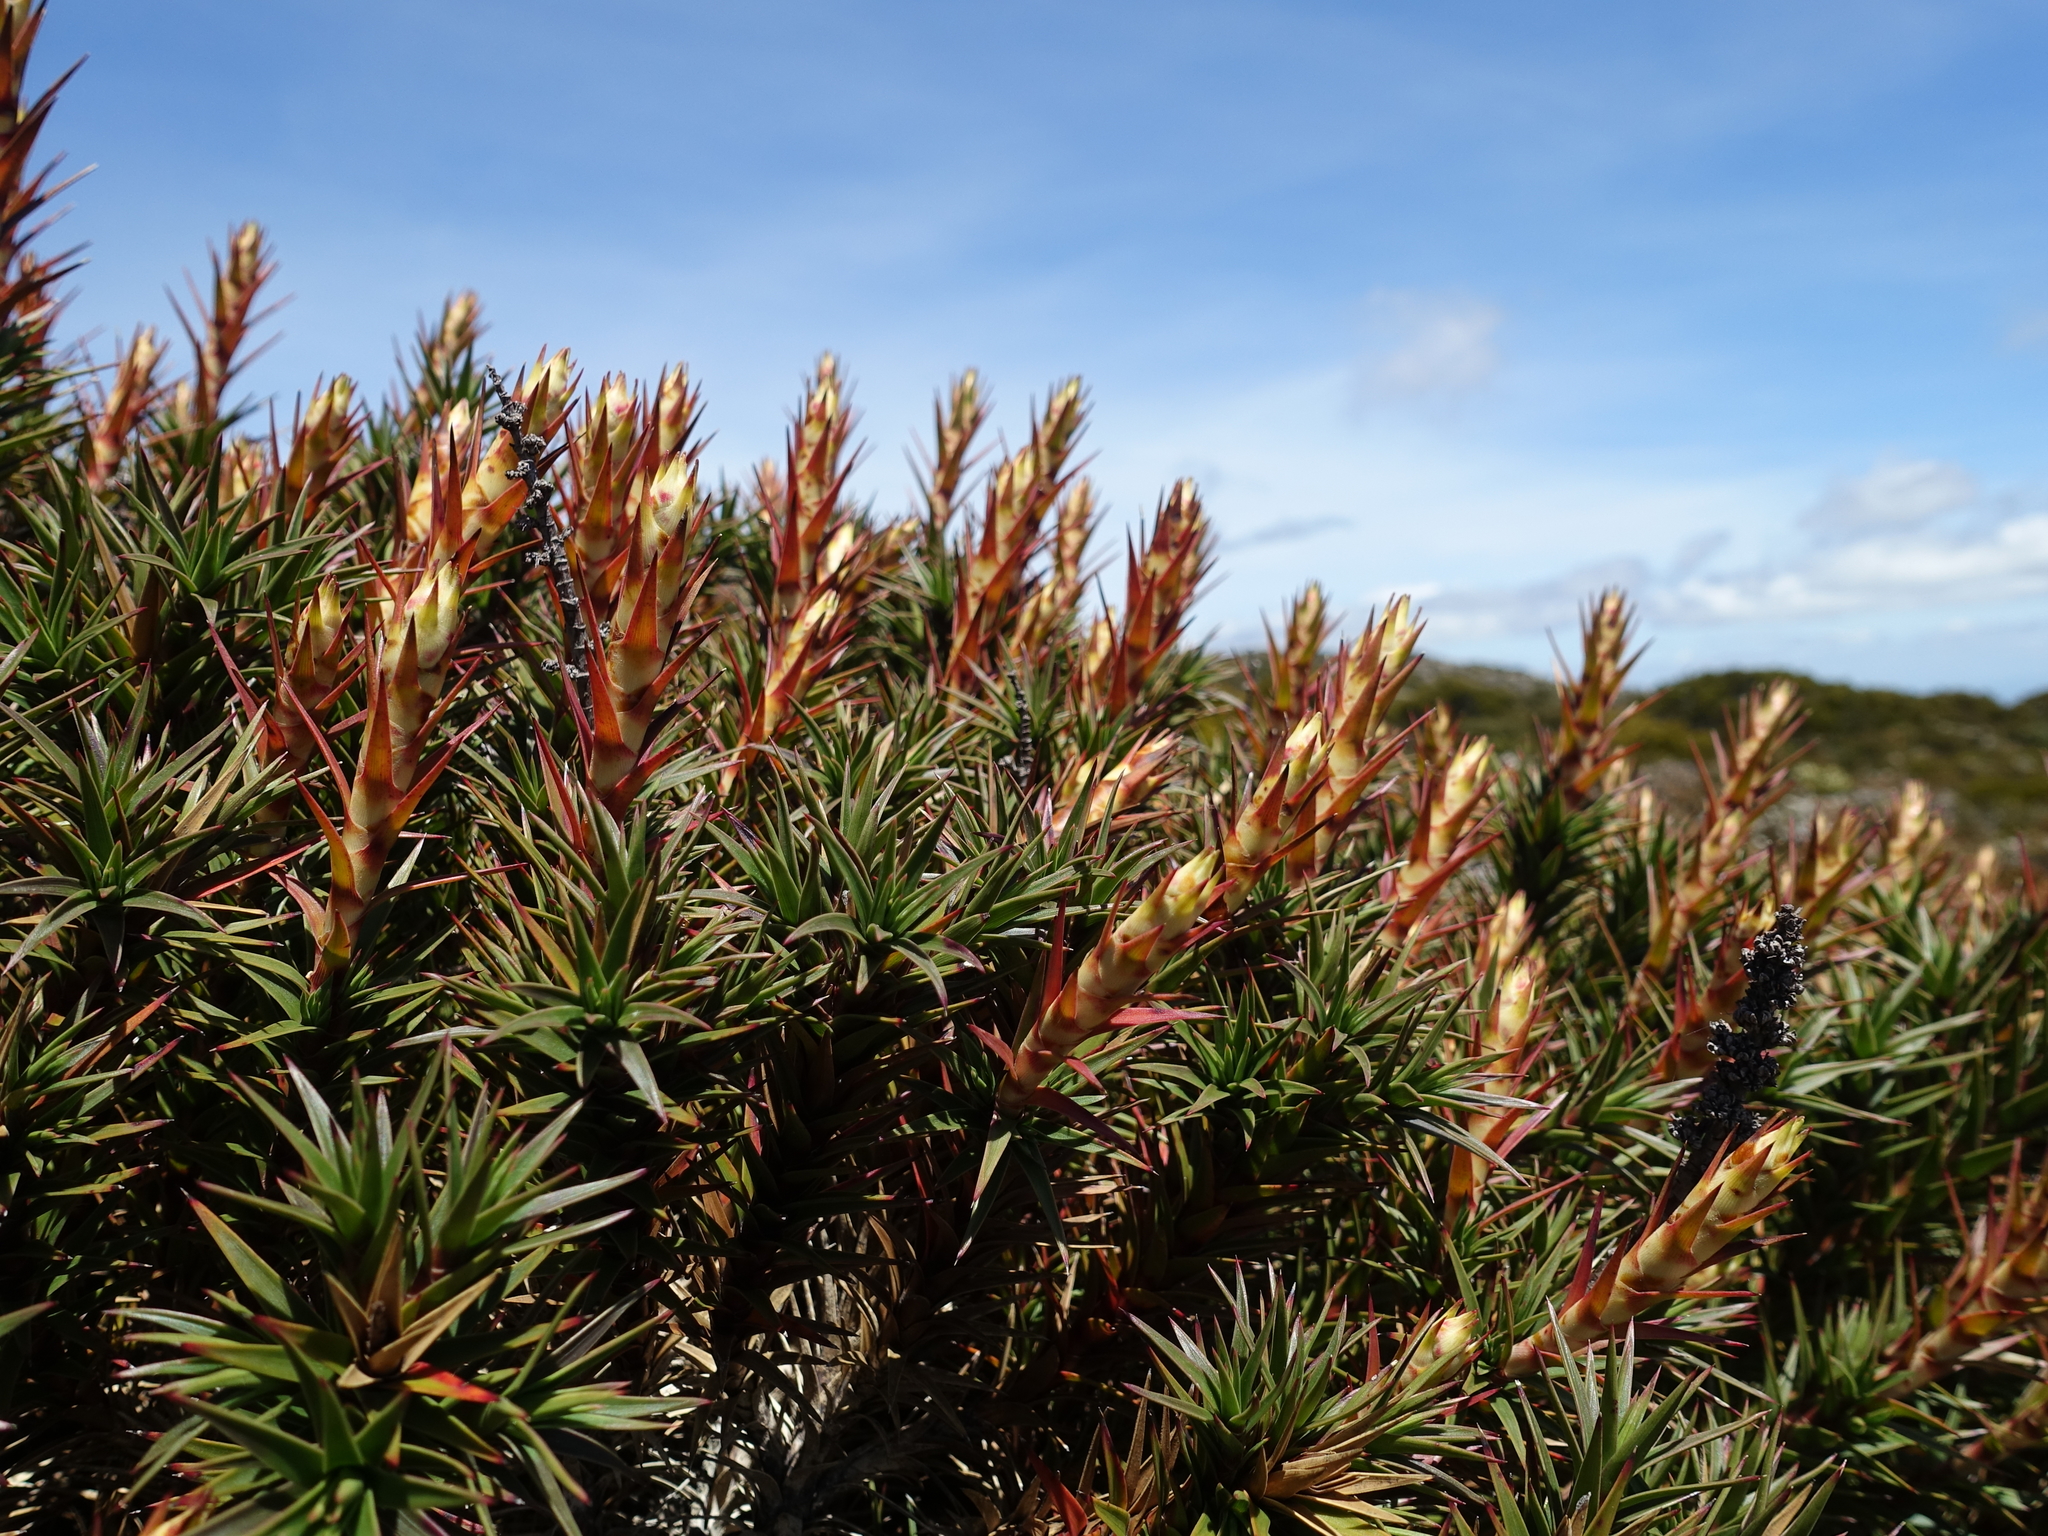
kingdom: Plantae
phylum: Tracheophyta
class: Magnoliopsida
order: Ericales
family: Ericaceae
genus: Dracophyllum
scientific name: Dracophyllum persistentifolium
